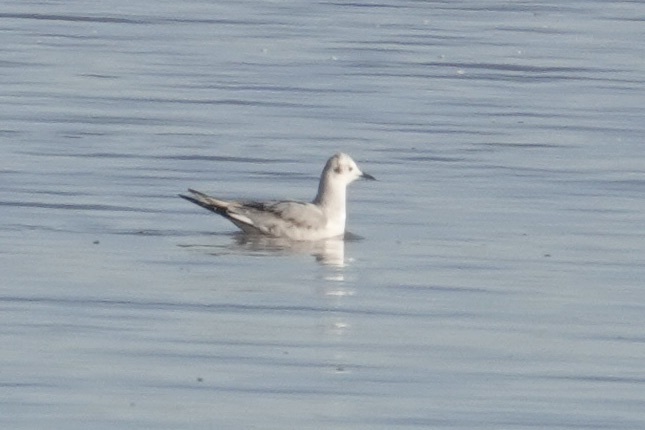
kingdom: Animalia
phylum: Chordata
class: Aves
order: Charadriiformes
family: Laridae
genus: Chroicocephalus
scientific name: Chroicocephalus philadelphia
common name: Bonaparte's gull
